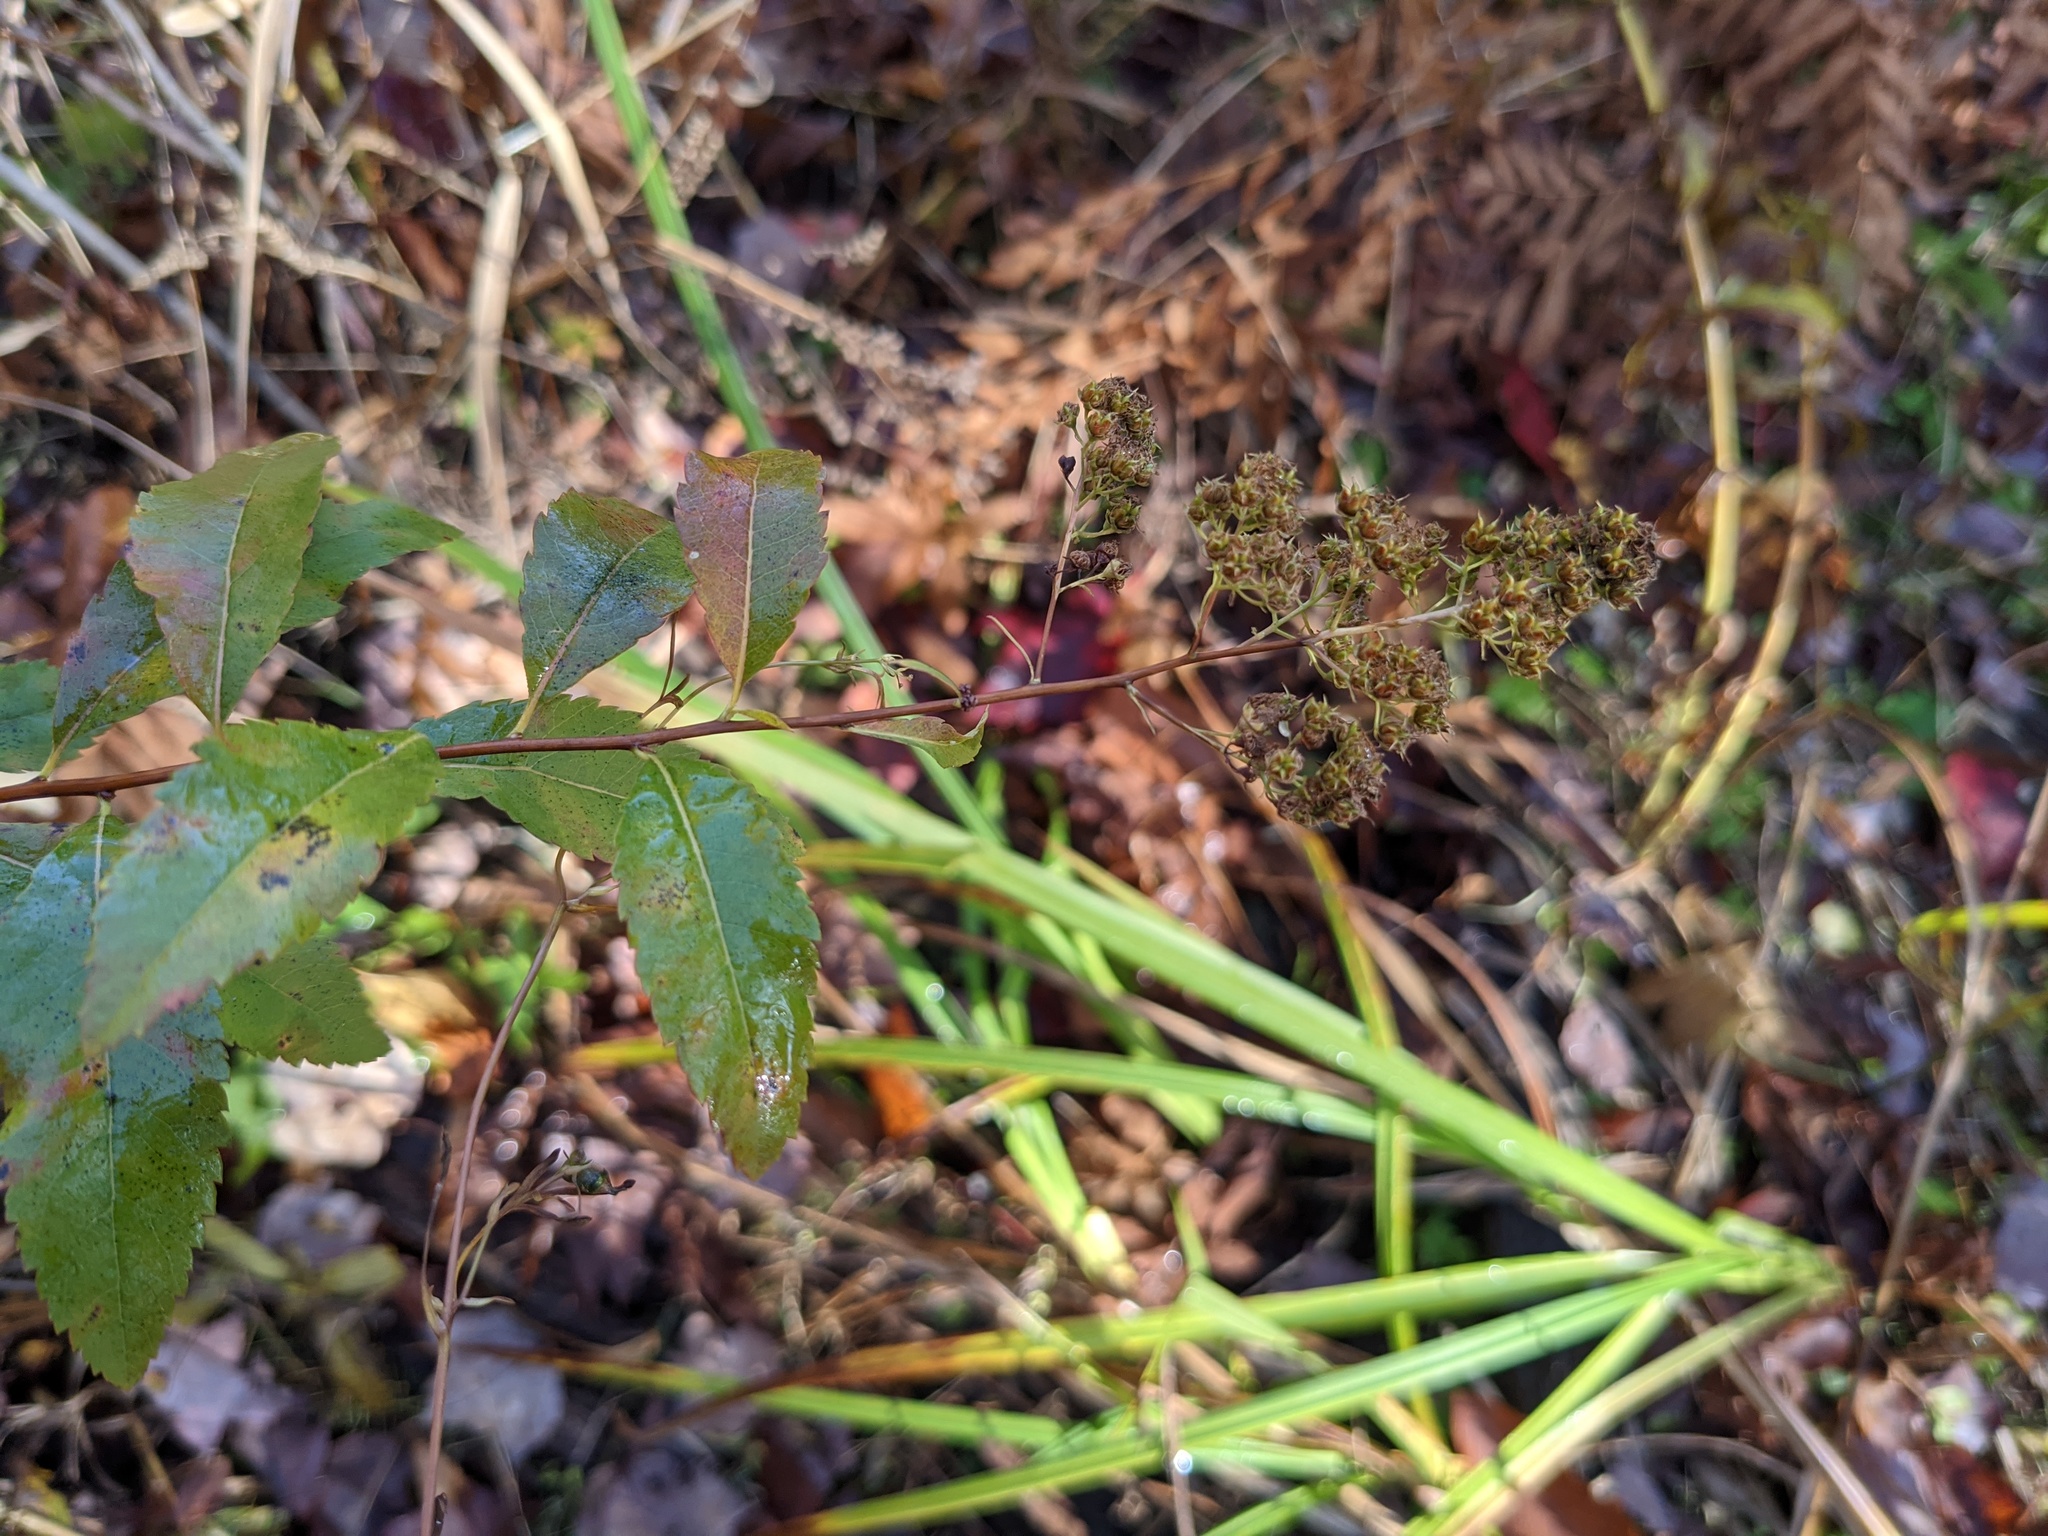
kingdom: Plantae
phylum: Tracheophyta
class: Magnoliopsida
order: Rosales
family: Rosaceae
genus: Spiraea
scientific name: Spiraea alba
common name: Pale bridewort
